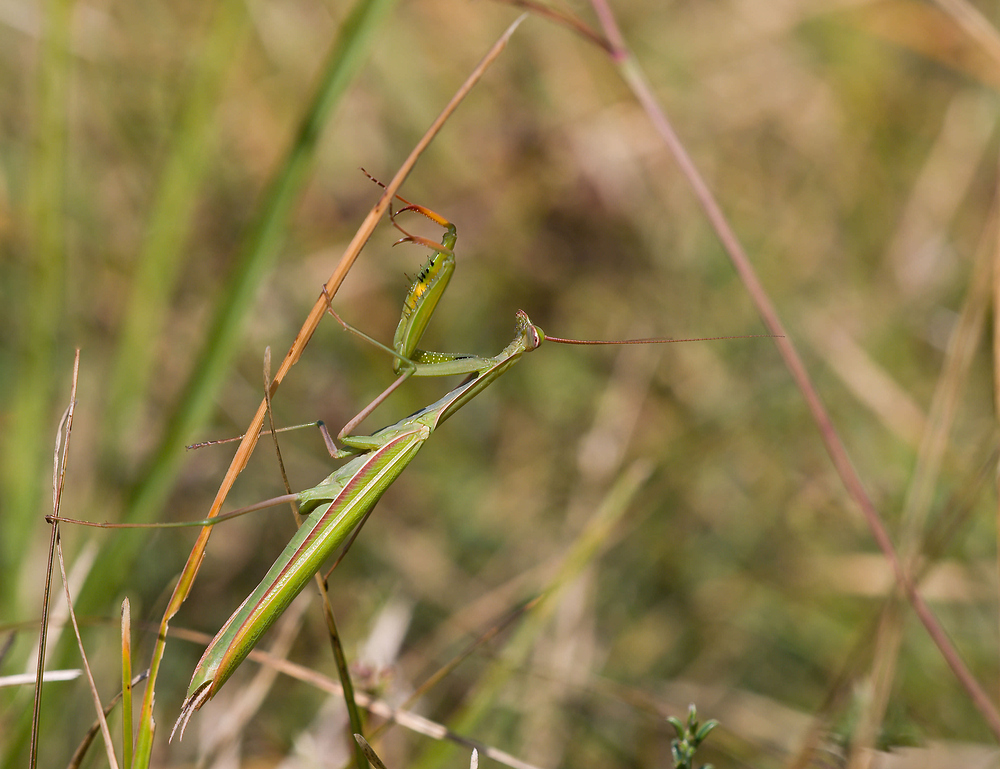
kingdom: Animalia
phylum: Arthropoda
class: Insecta
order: Mantodea
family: Mantidae
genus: Mantis
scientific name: Mantis religiosa
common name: Praying mantis
